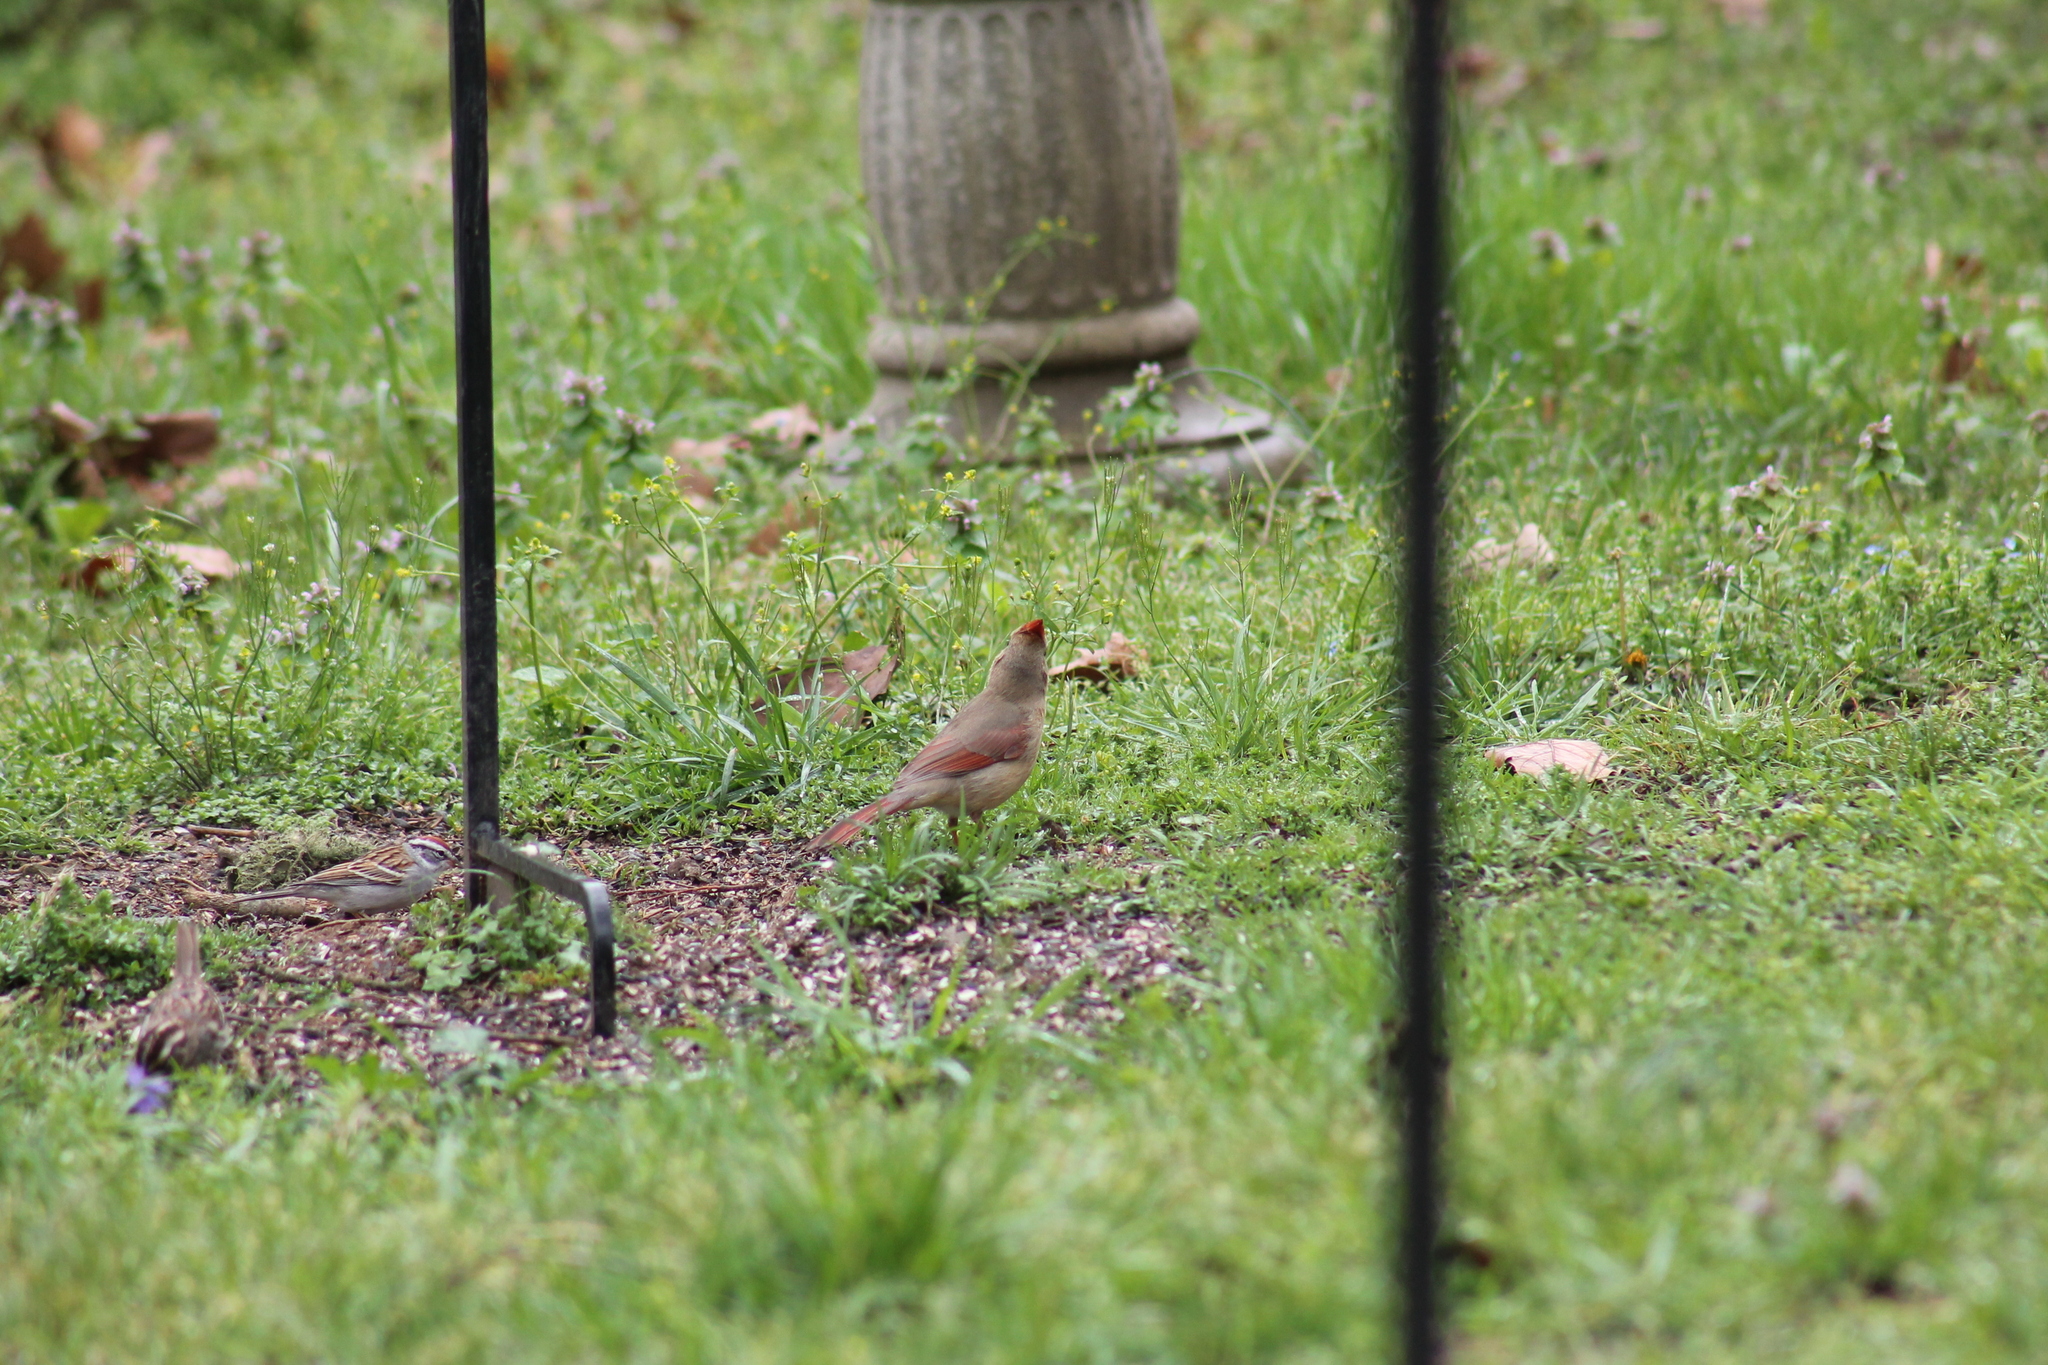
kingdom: Animalia
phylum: Chordata
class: Aves
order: Passeriformes
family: Cardinalidae
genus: Cardinalis
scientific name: Cardinalis cardinalis
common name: Northern cardinal
